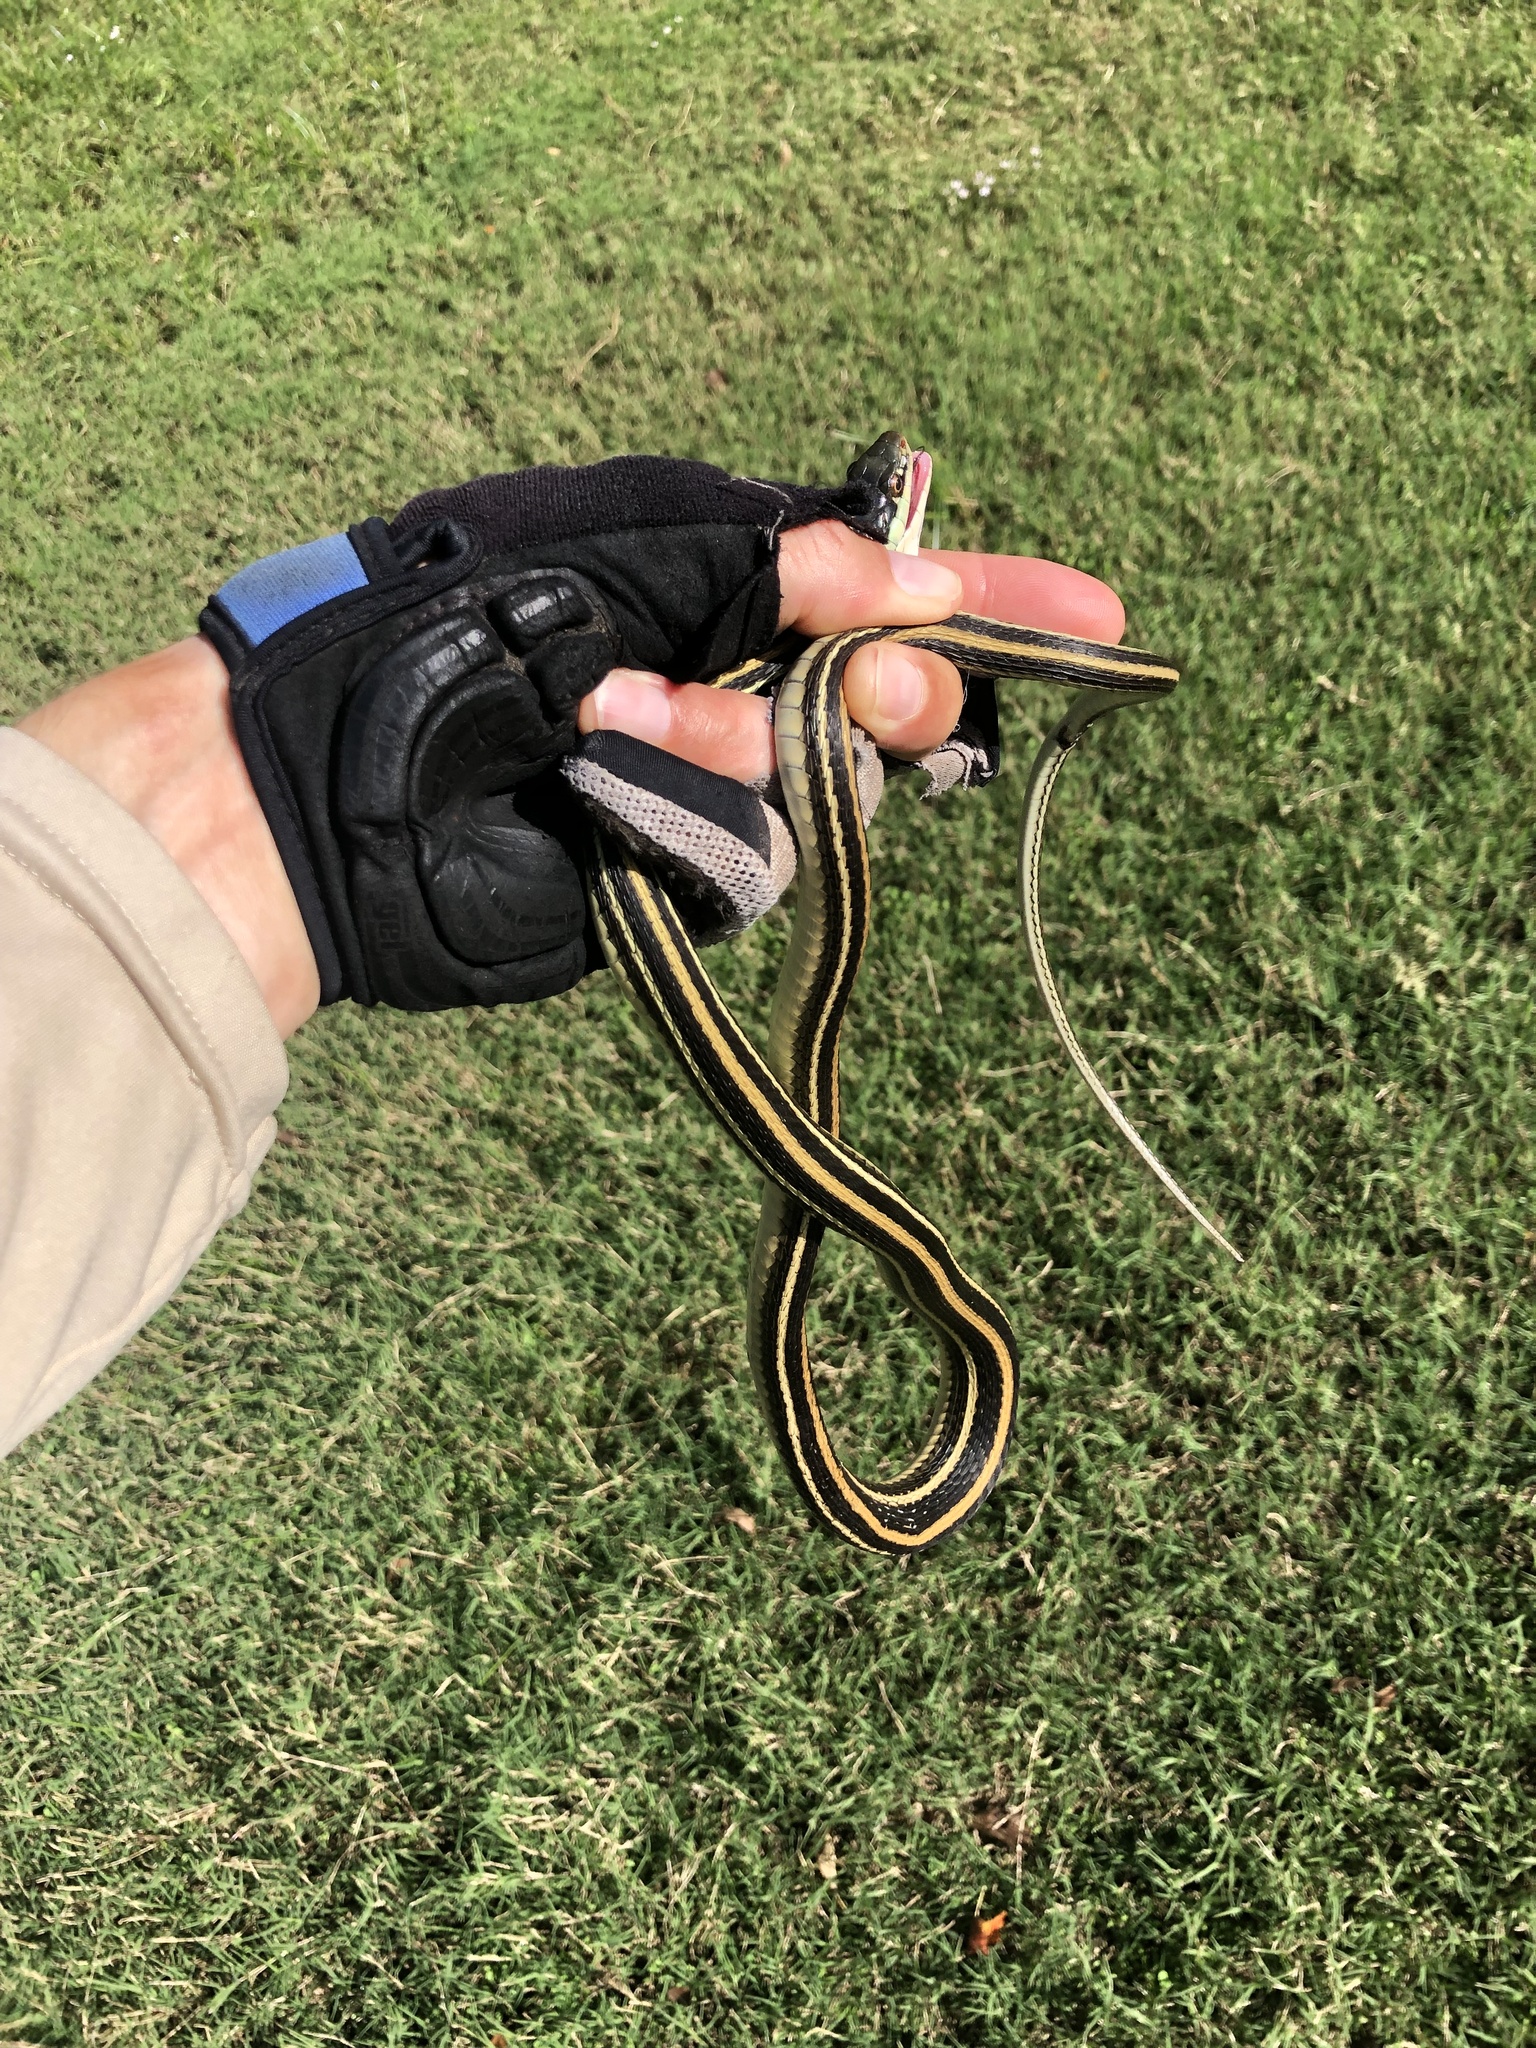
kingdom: Animalia
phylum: Chordata
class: Squamata
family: Colubridae
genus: Thamnophis
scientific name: Thamnophis proximus
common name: Western ribbon snake
